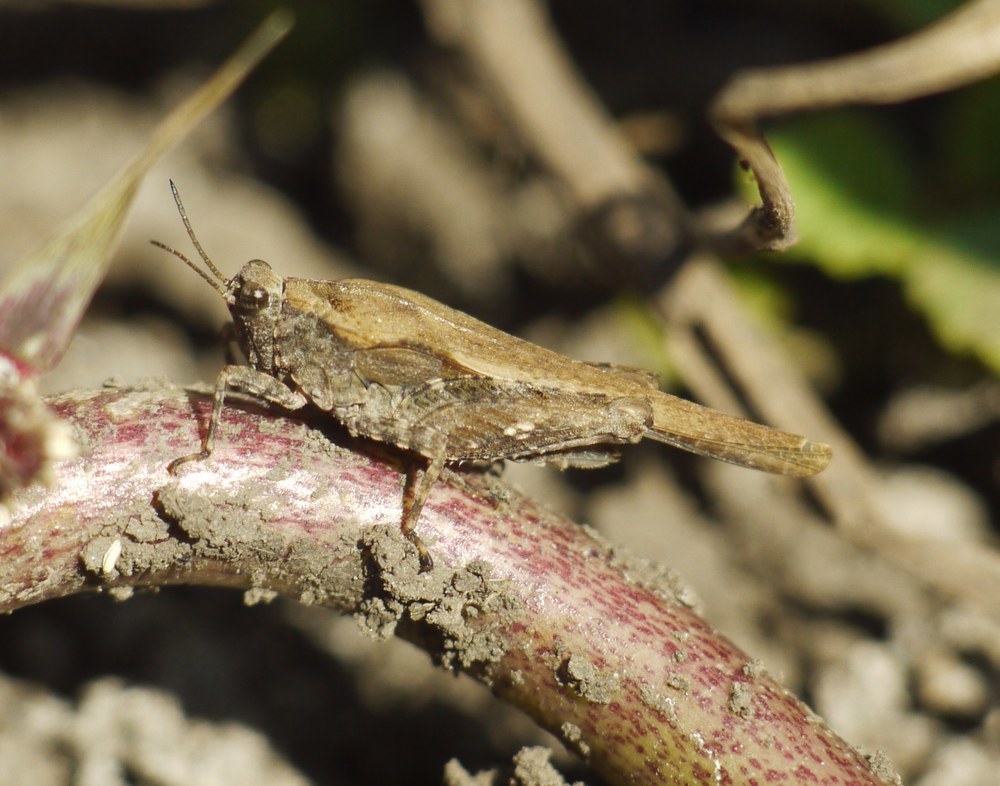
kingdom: Animalia
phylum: Arthropoda
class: Insecta
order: Orthoptera
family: Tetrigidae
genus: Tetrix
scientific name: Tetrix subulata
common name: Slender ground-hopper
